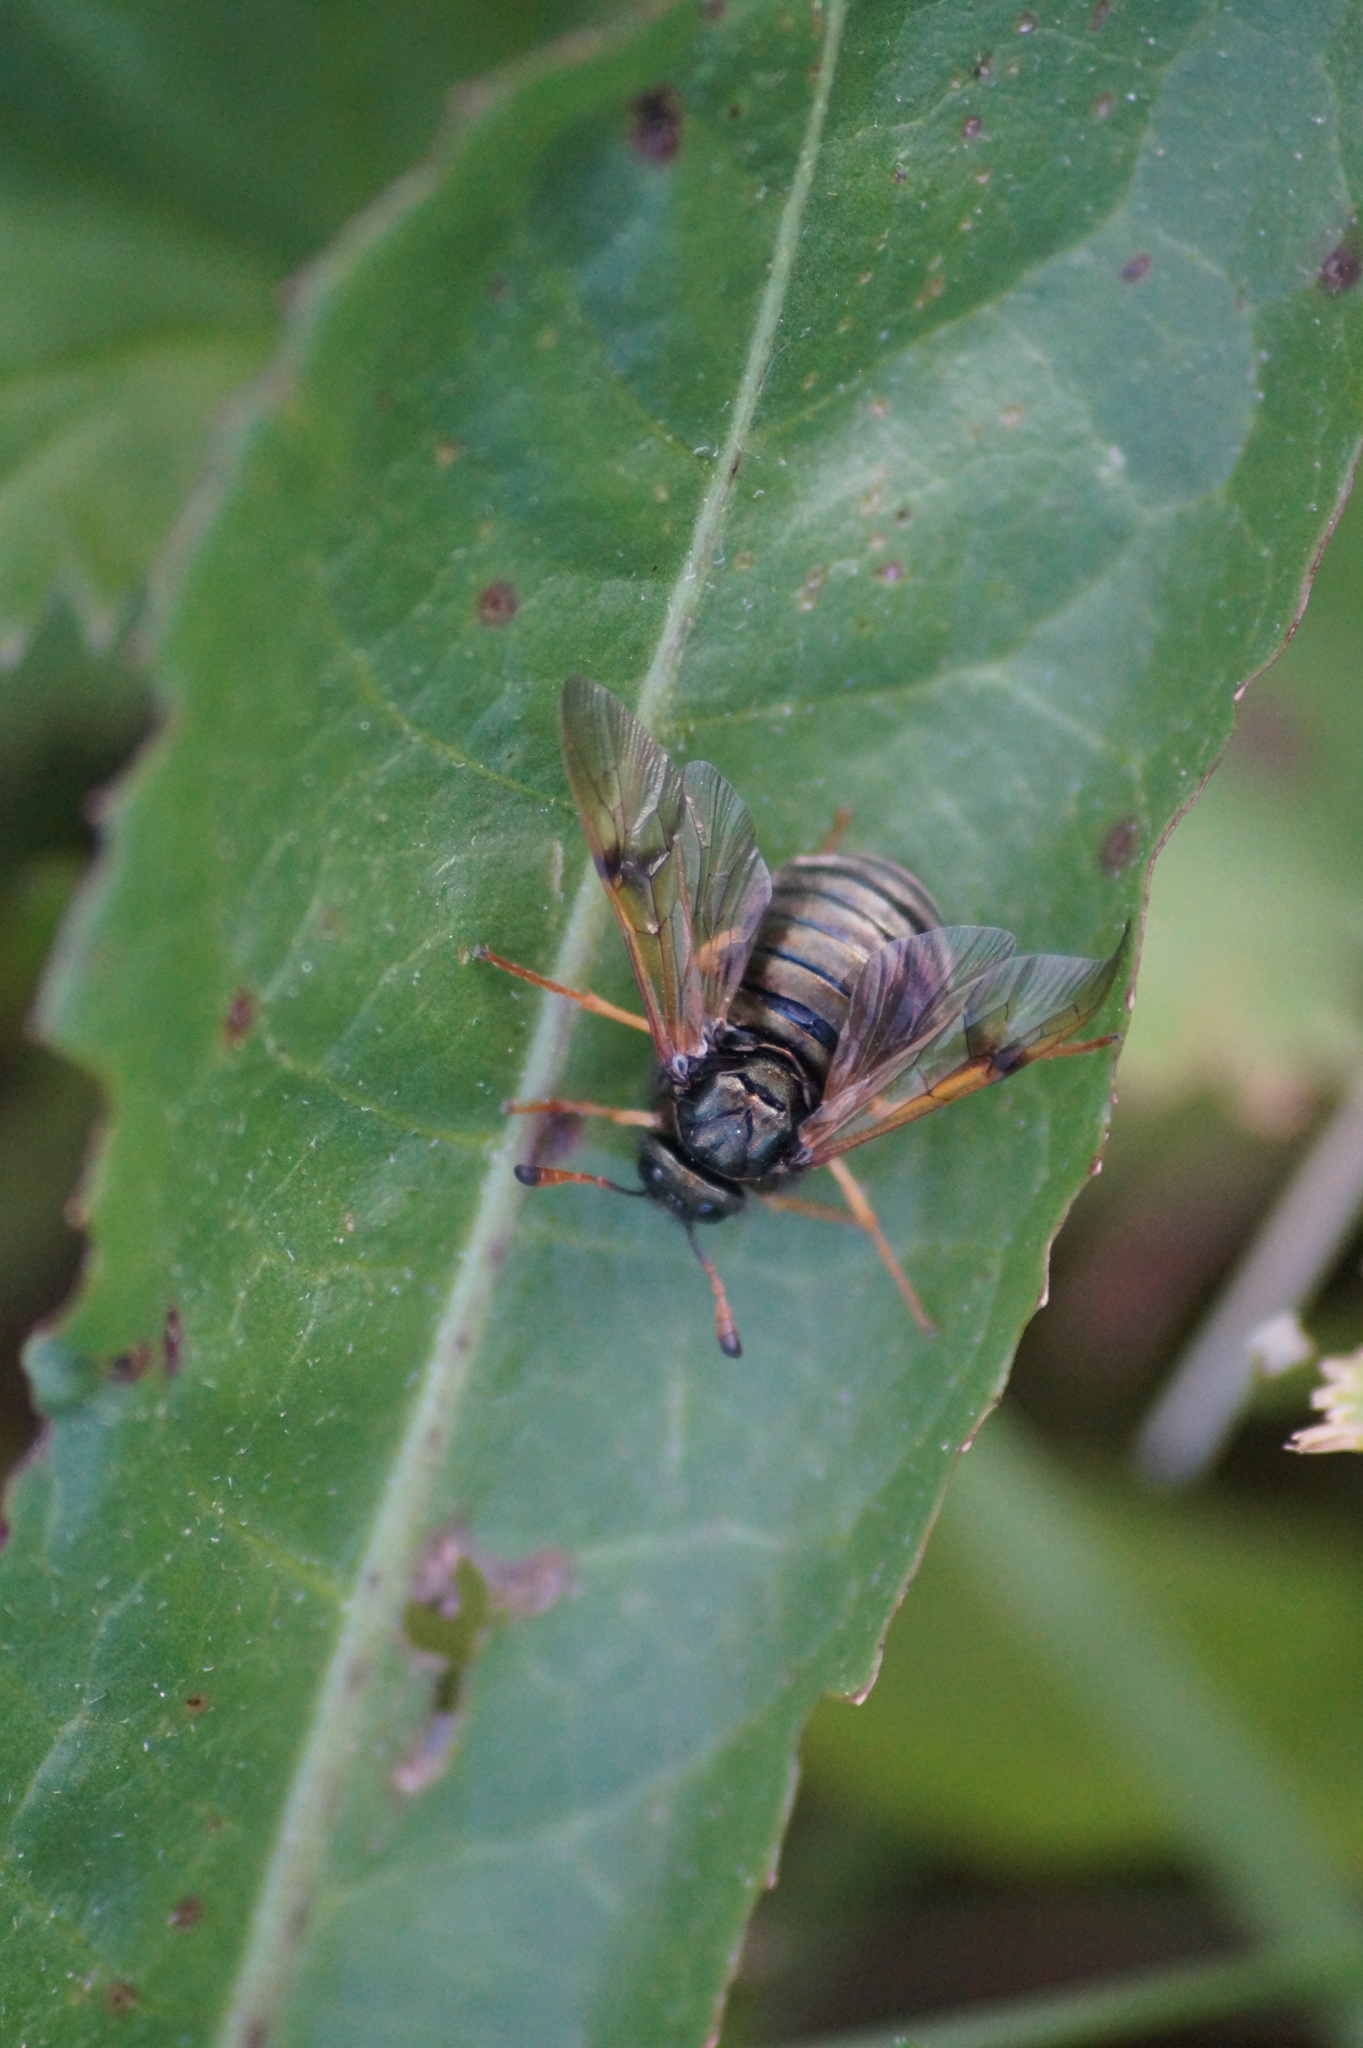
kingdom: Animalia
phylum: Arthropoda
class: Insecta
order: Hymenoptera
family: Cimbicidae
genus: Abia
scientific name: Abia fulgens
